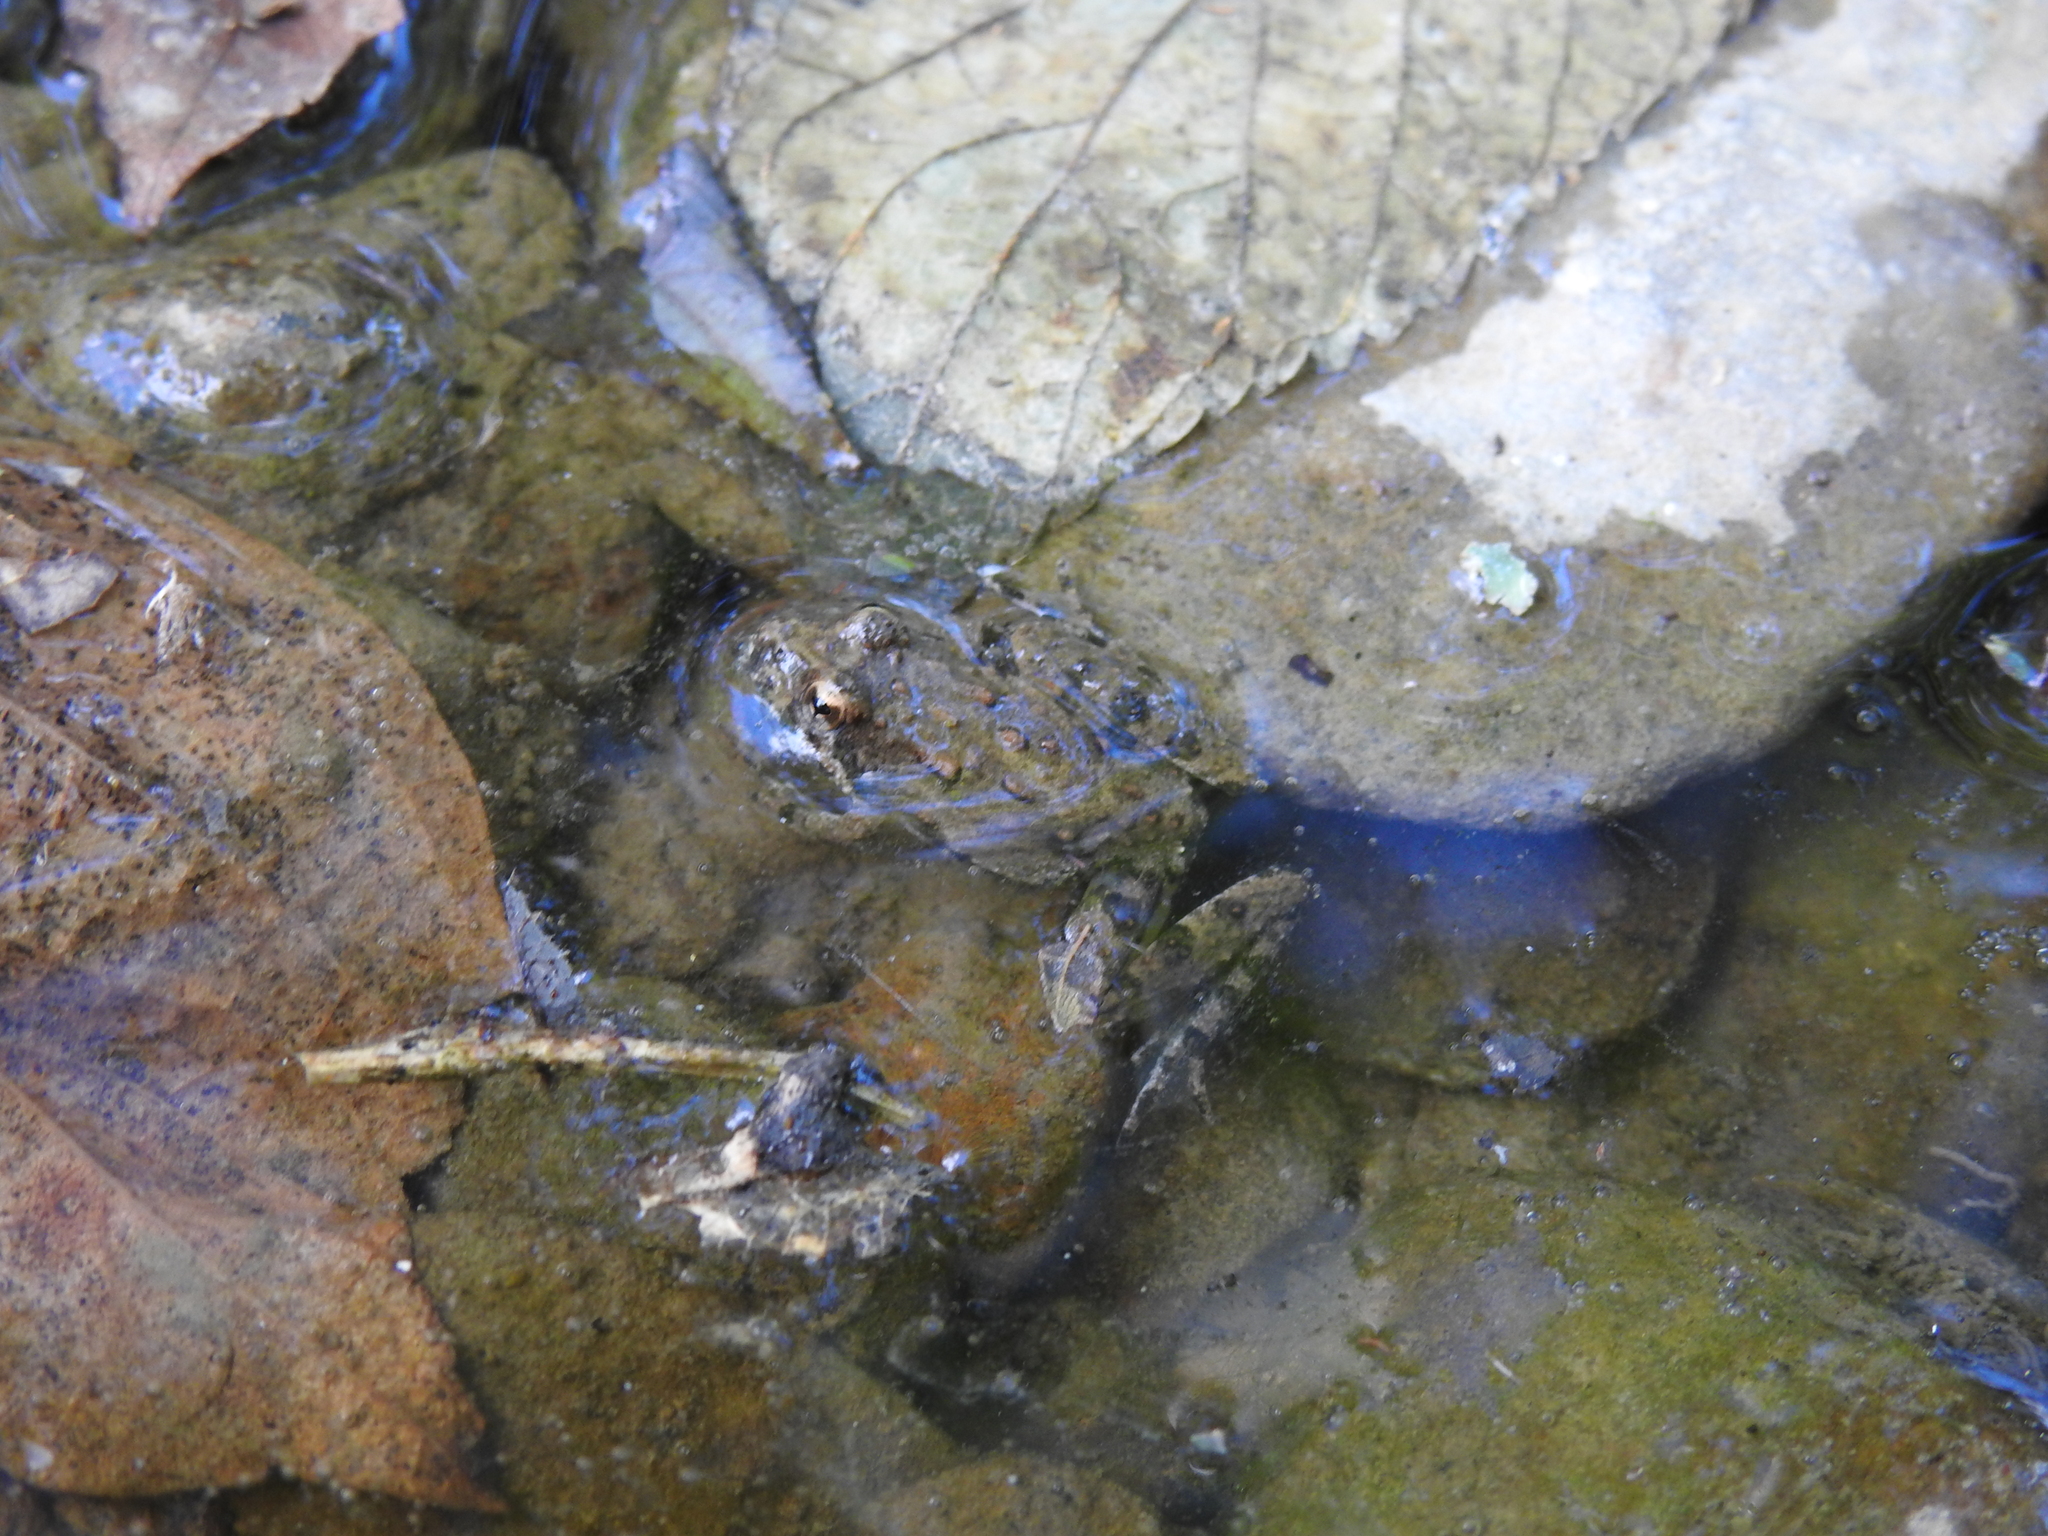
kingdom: Animalia
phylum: Chordata
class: Amphibia
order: Anura
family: Hylidae
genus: Acris
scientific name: Acris blanchardi
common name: Blanchard's cricket frog
